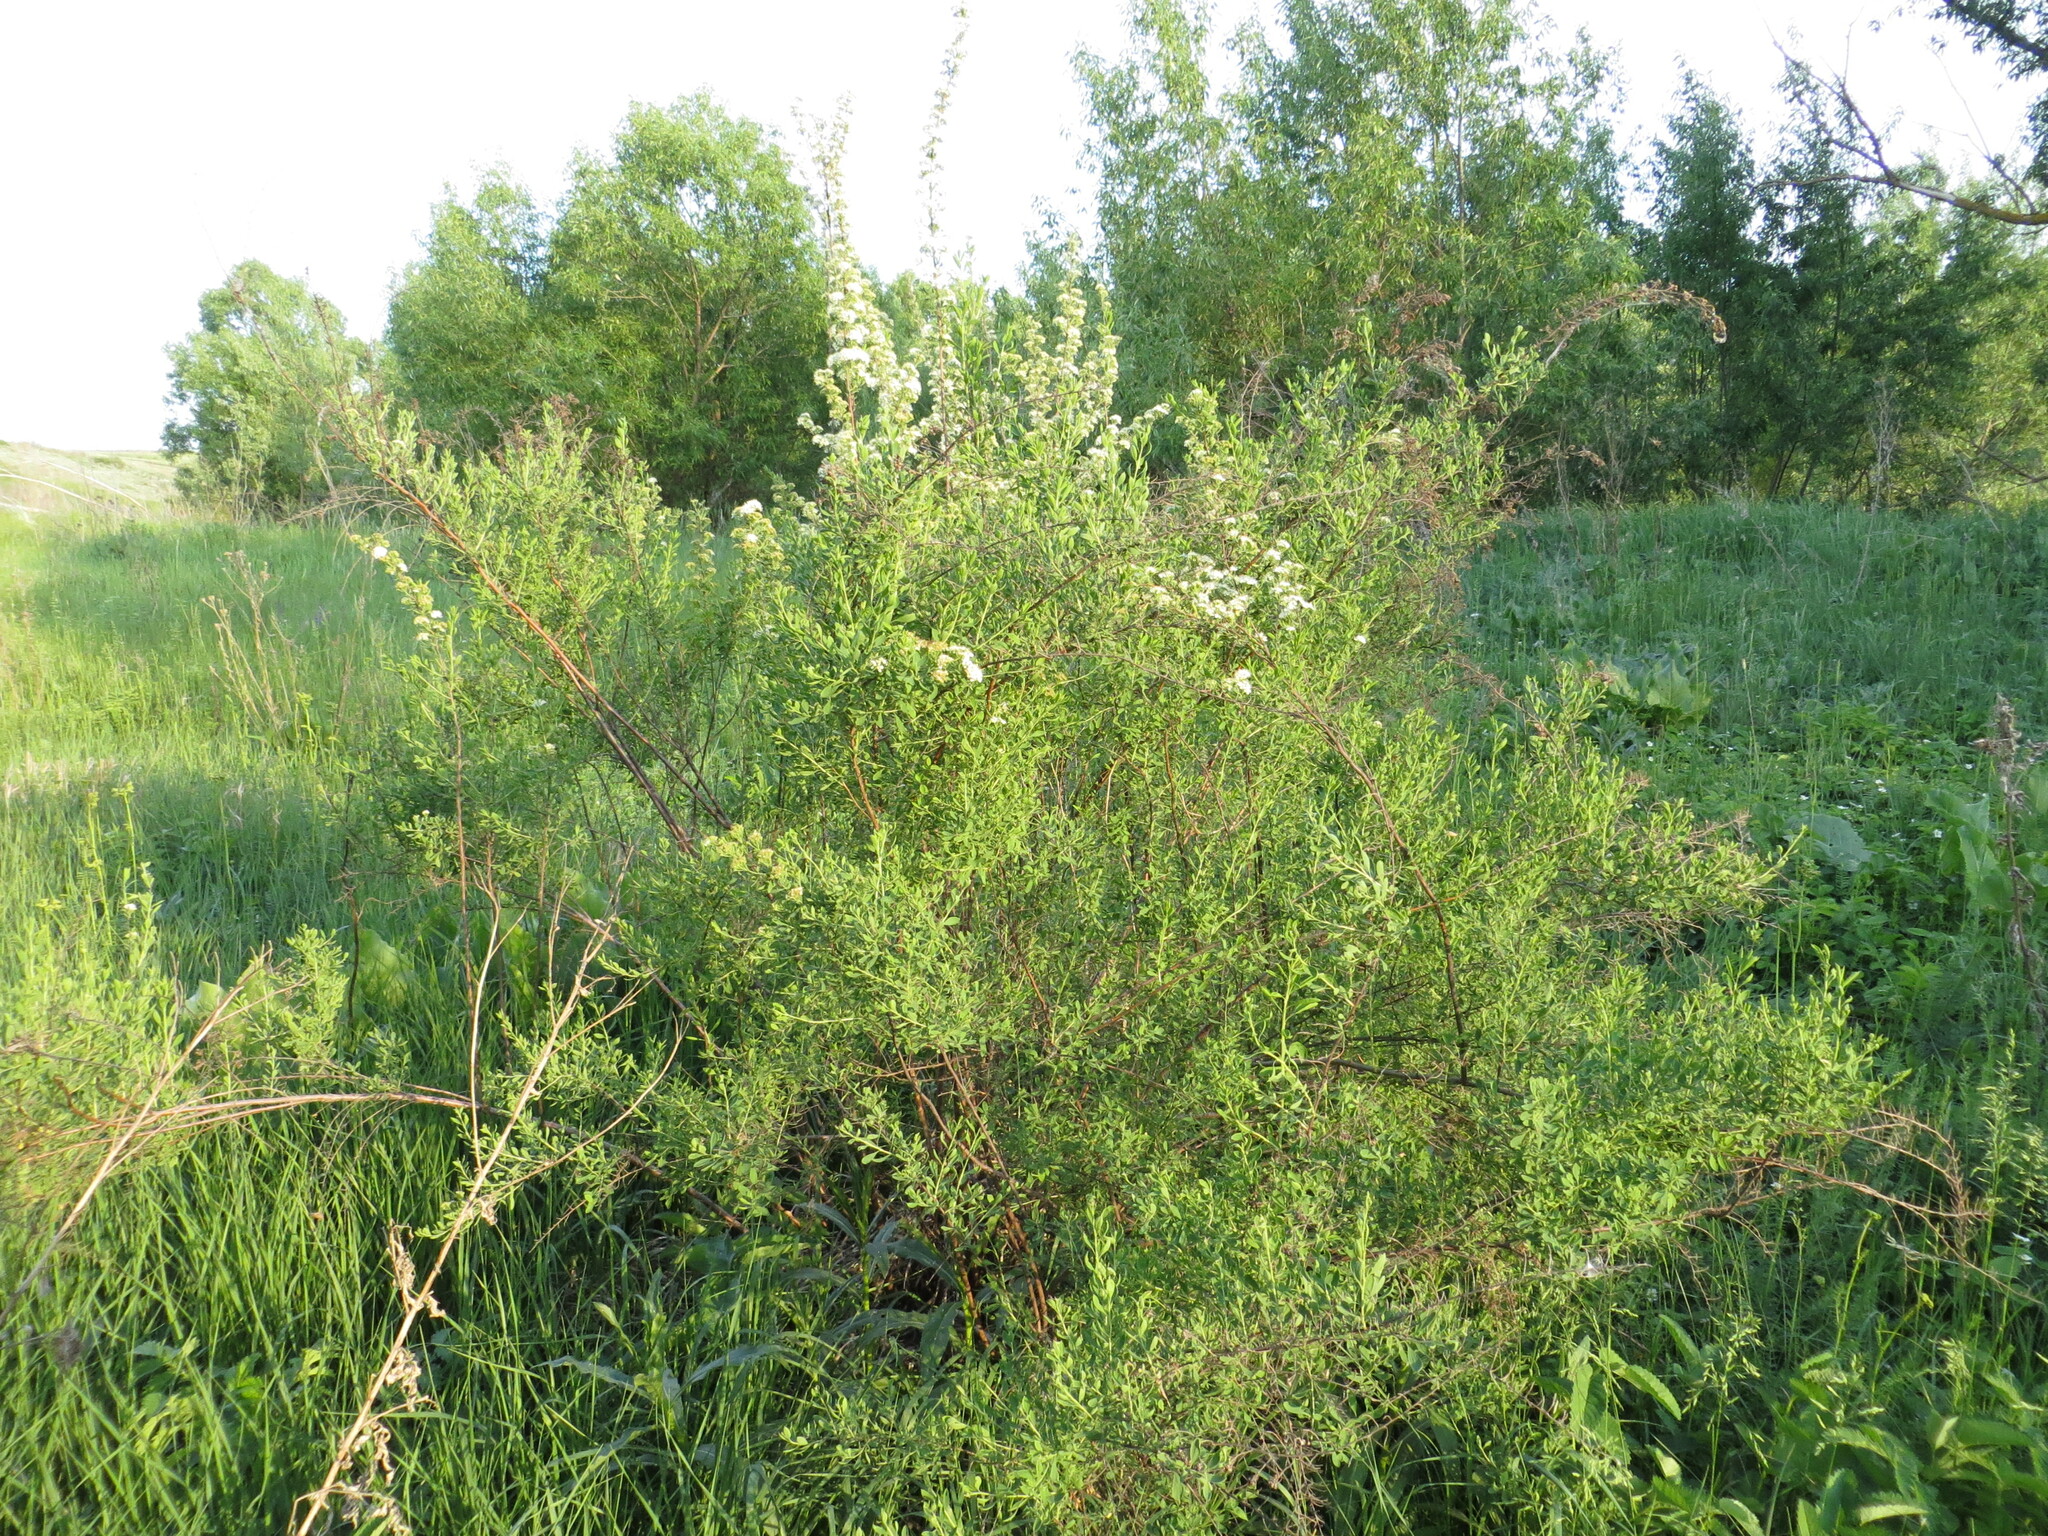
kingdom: Plantae
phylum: Tracheophyta
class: Magnoliopsida
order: Rosales
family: Rosaceae
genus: Spiraea
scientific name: Spiraea crenata
